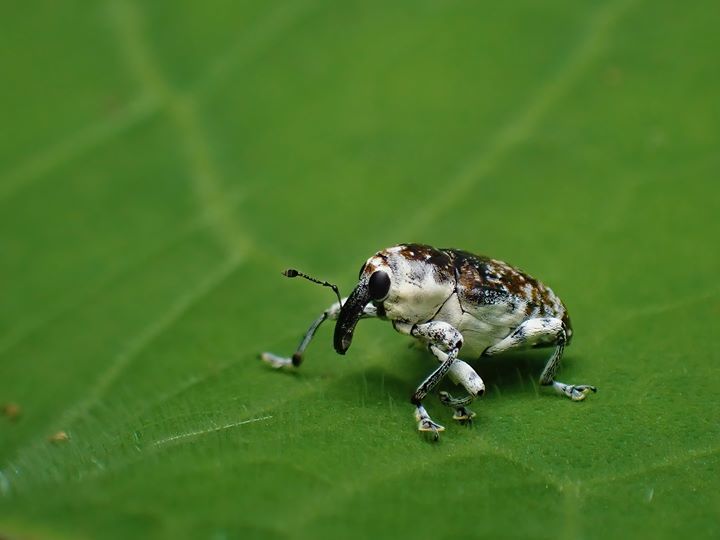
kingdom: Animalia
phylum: Arthropoda
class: Insecta
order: Coleoptera
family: Curculionidae
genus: Peridinetus
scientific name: Peridinetus irroratus
